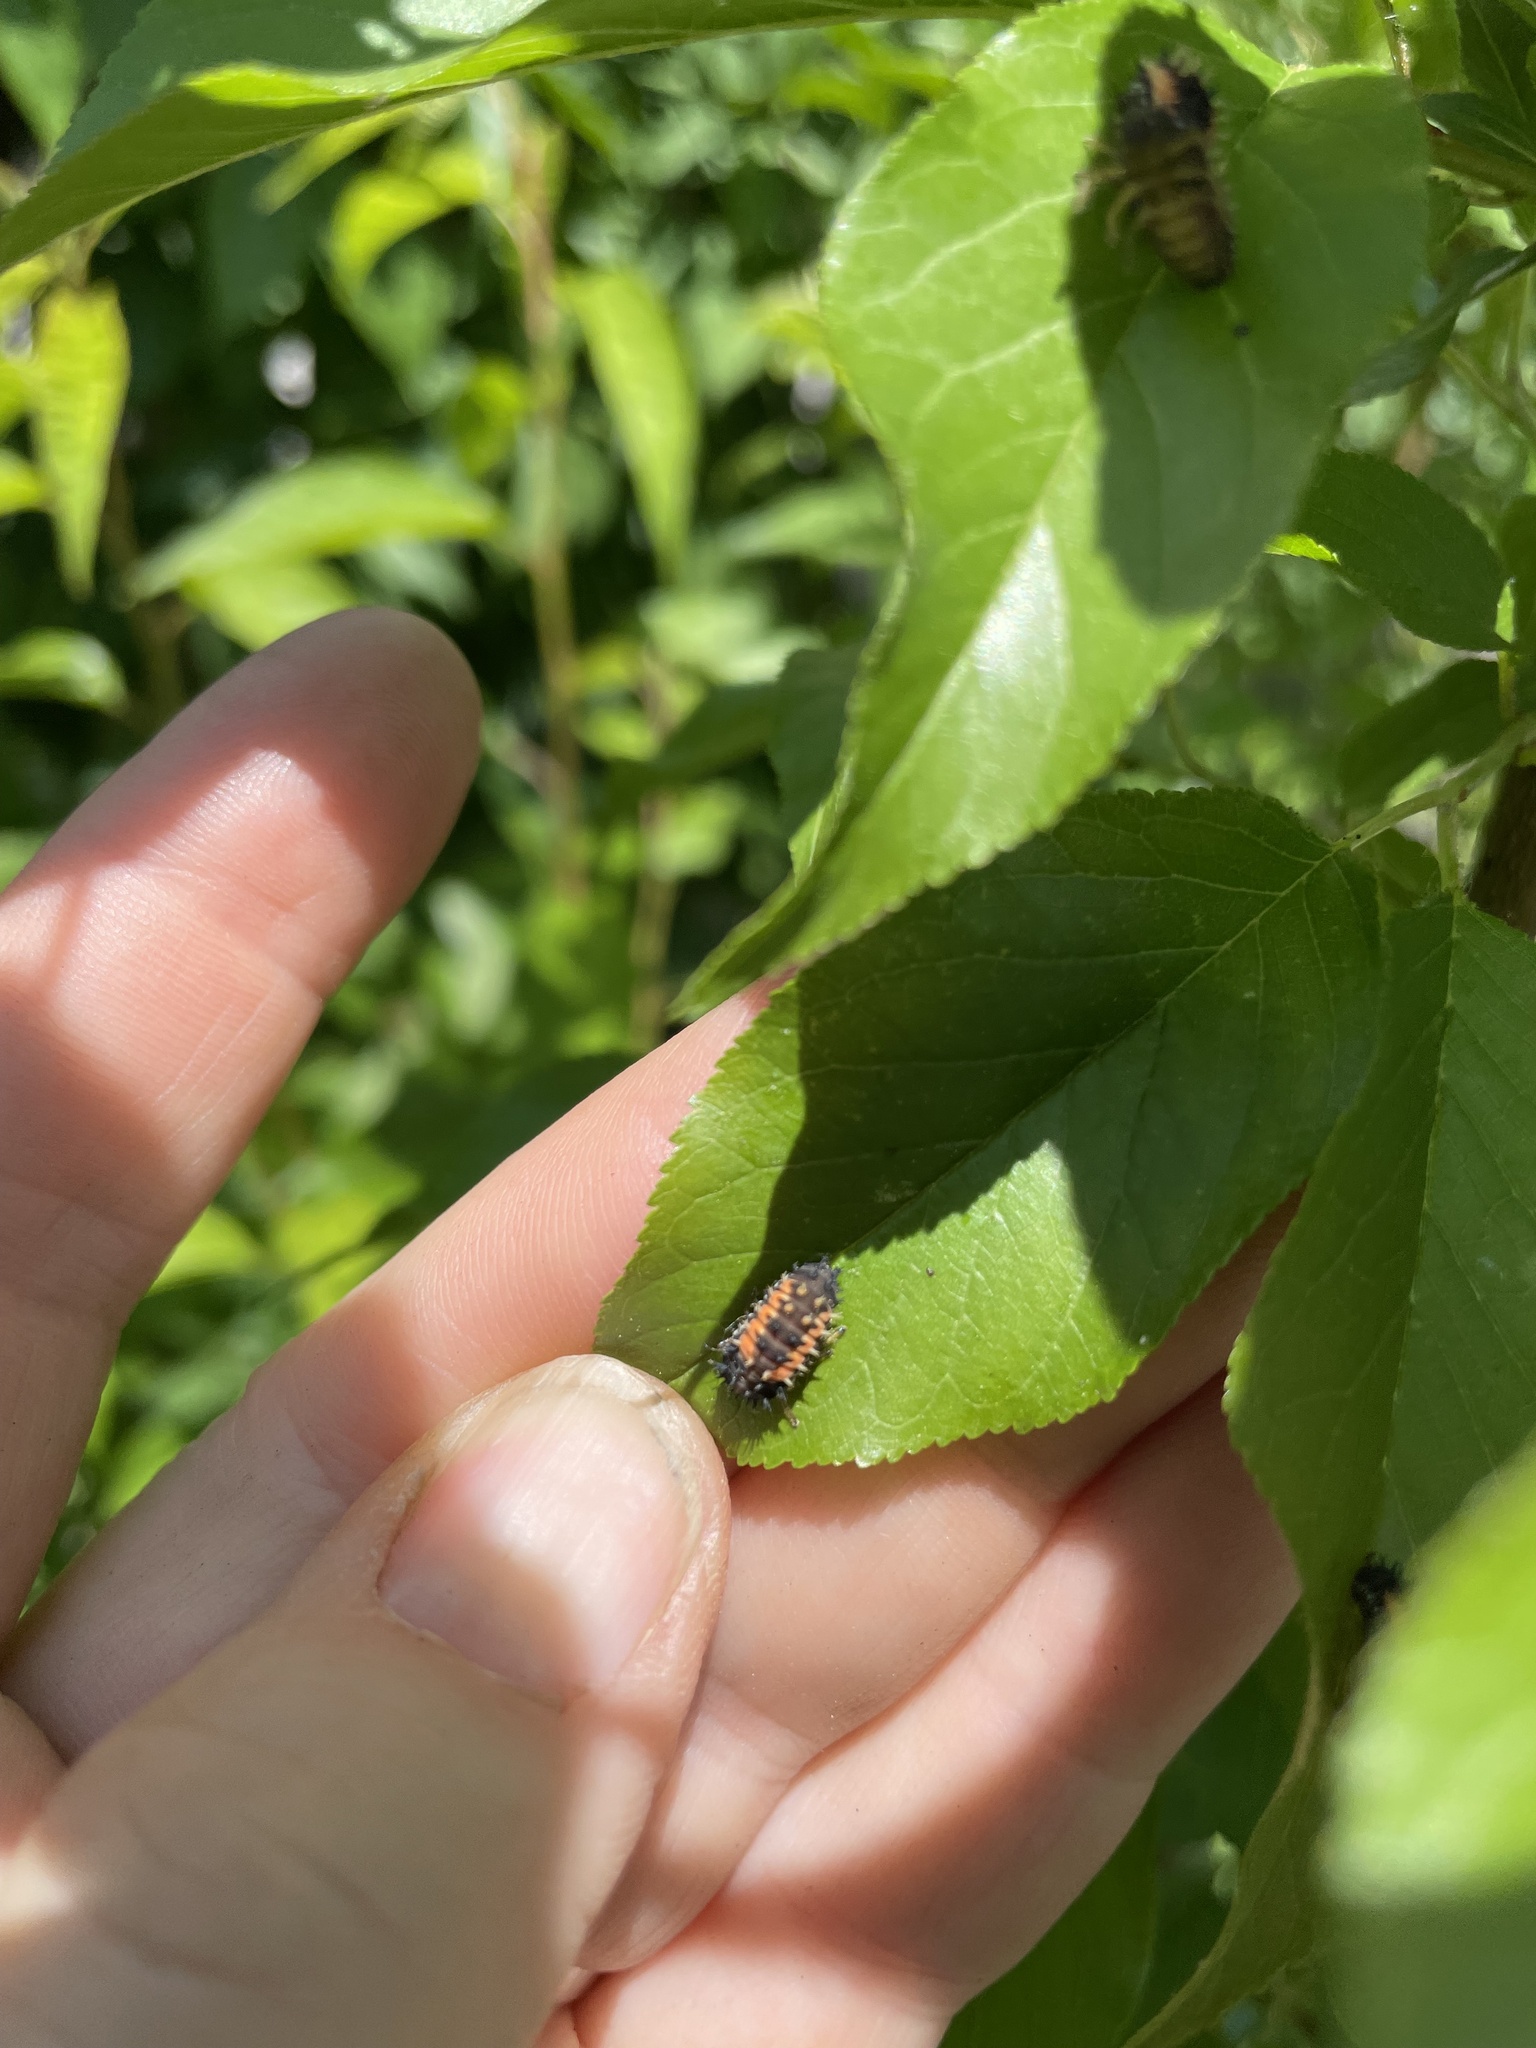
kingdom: Animalia
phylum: Arthropoda
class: Insecta
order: Coleoptera
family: Coccinellidae
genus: Harmonia
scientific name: Harmonia axyridis
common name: Harlequin ladybird
